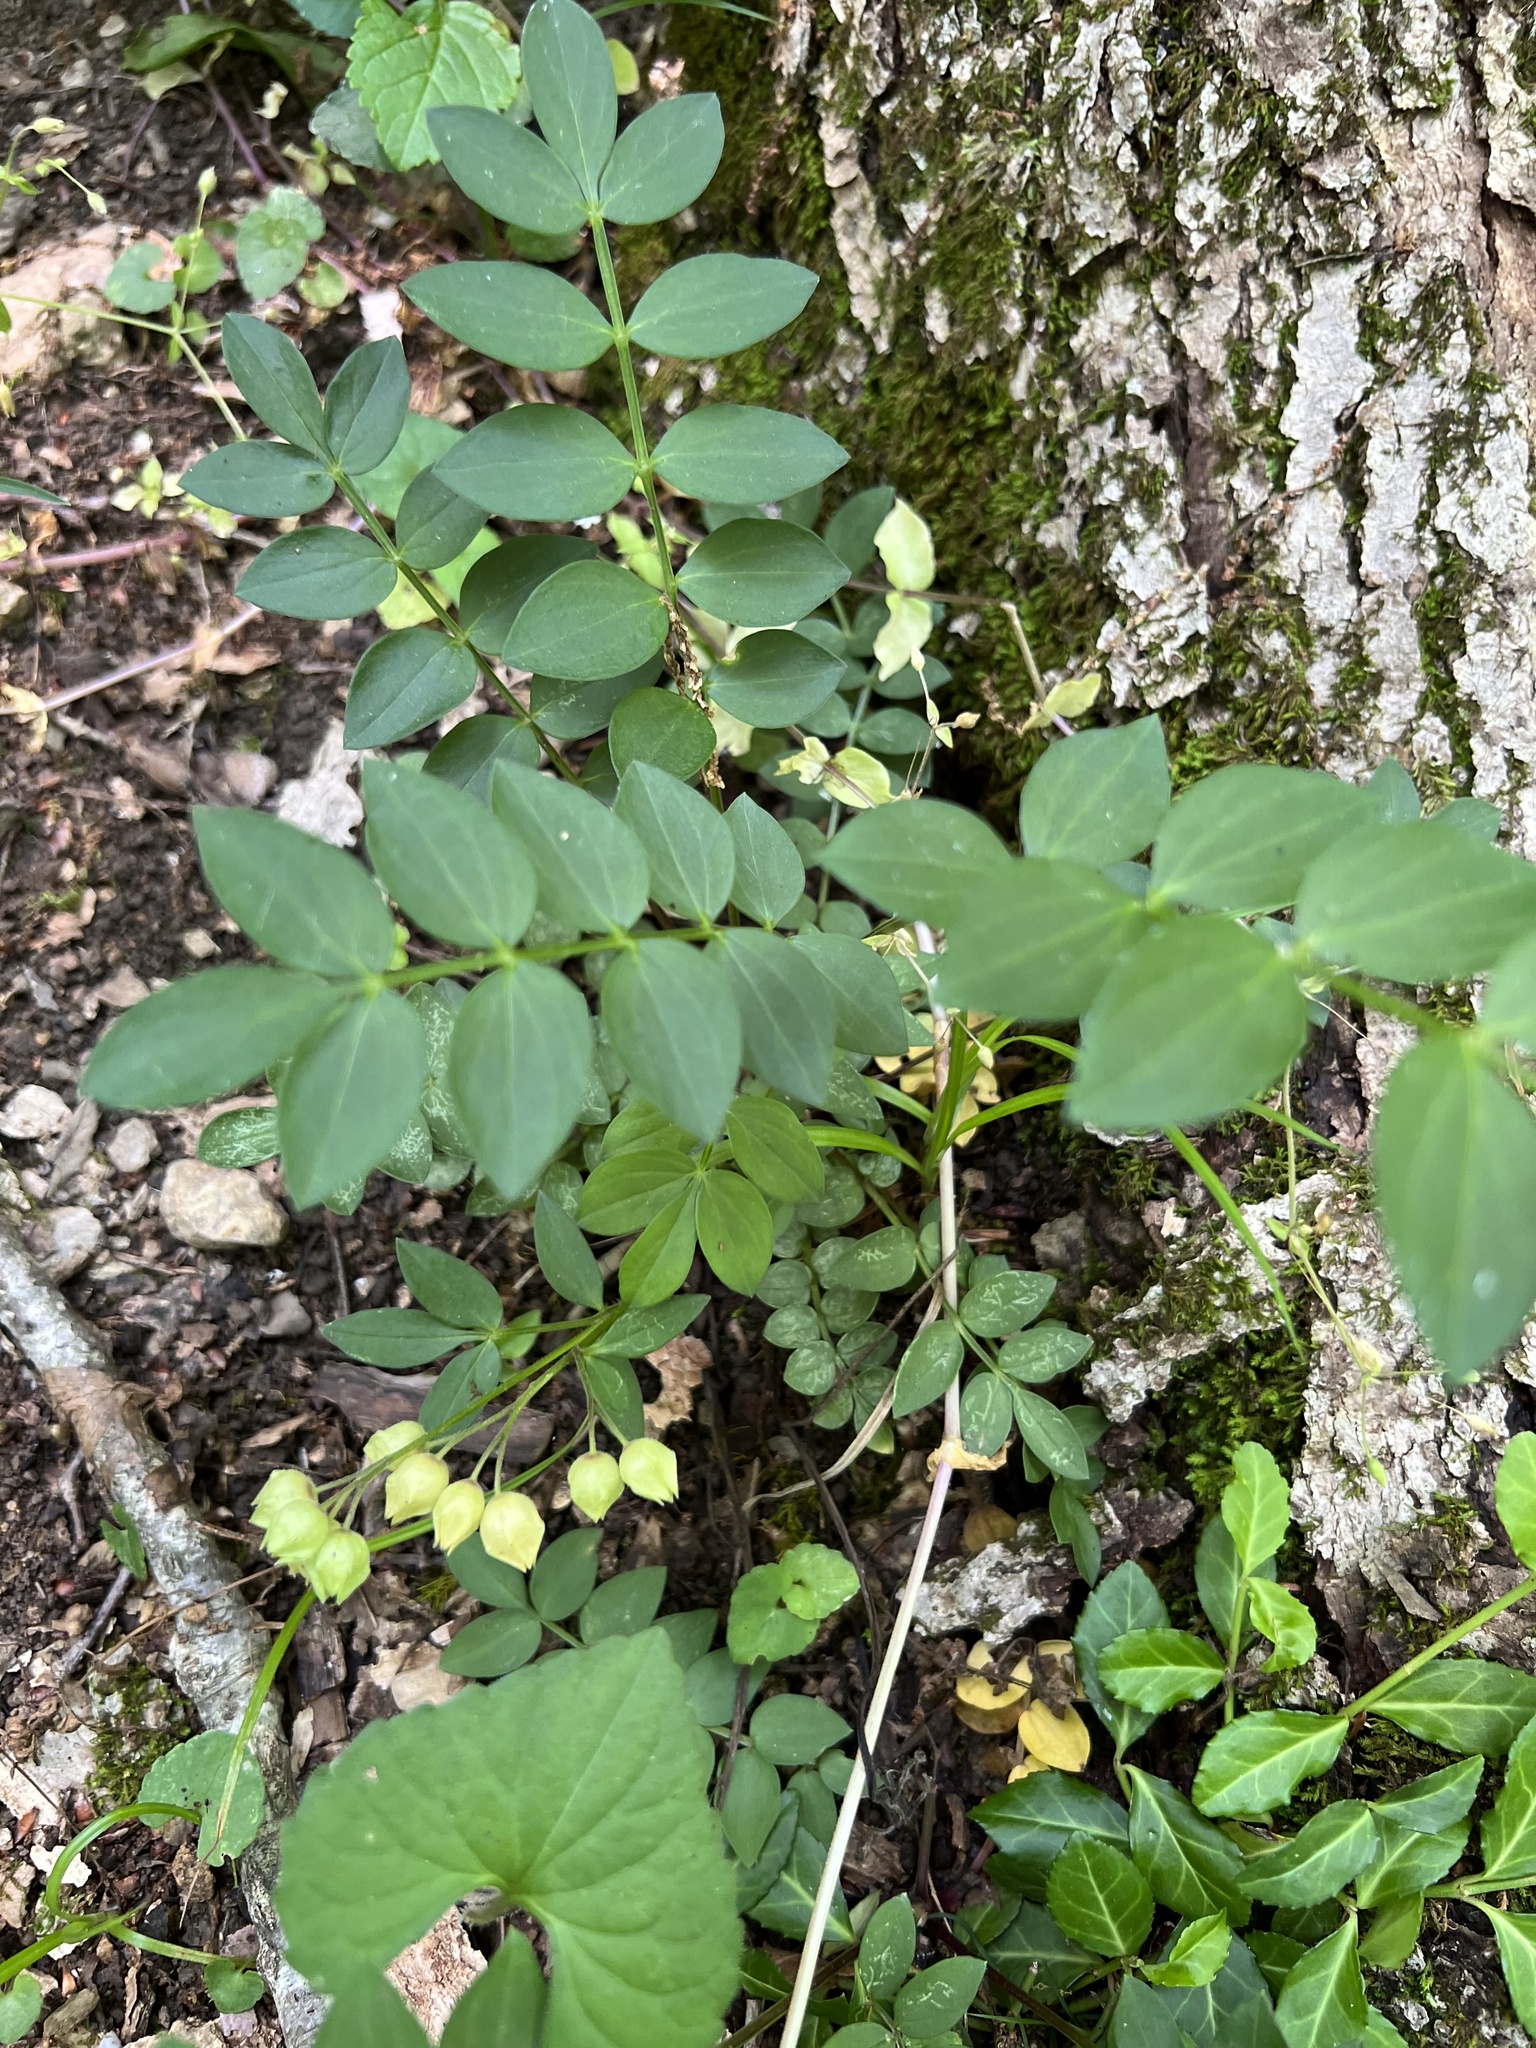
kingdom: Plantae
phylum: Tracheophyta
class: Magnoliopsida
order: Ericales
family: Polemoniaceae
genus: Polemonium
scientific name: Polemonium reptans
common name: Creeping jacob's-ladder
